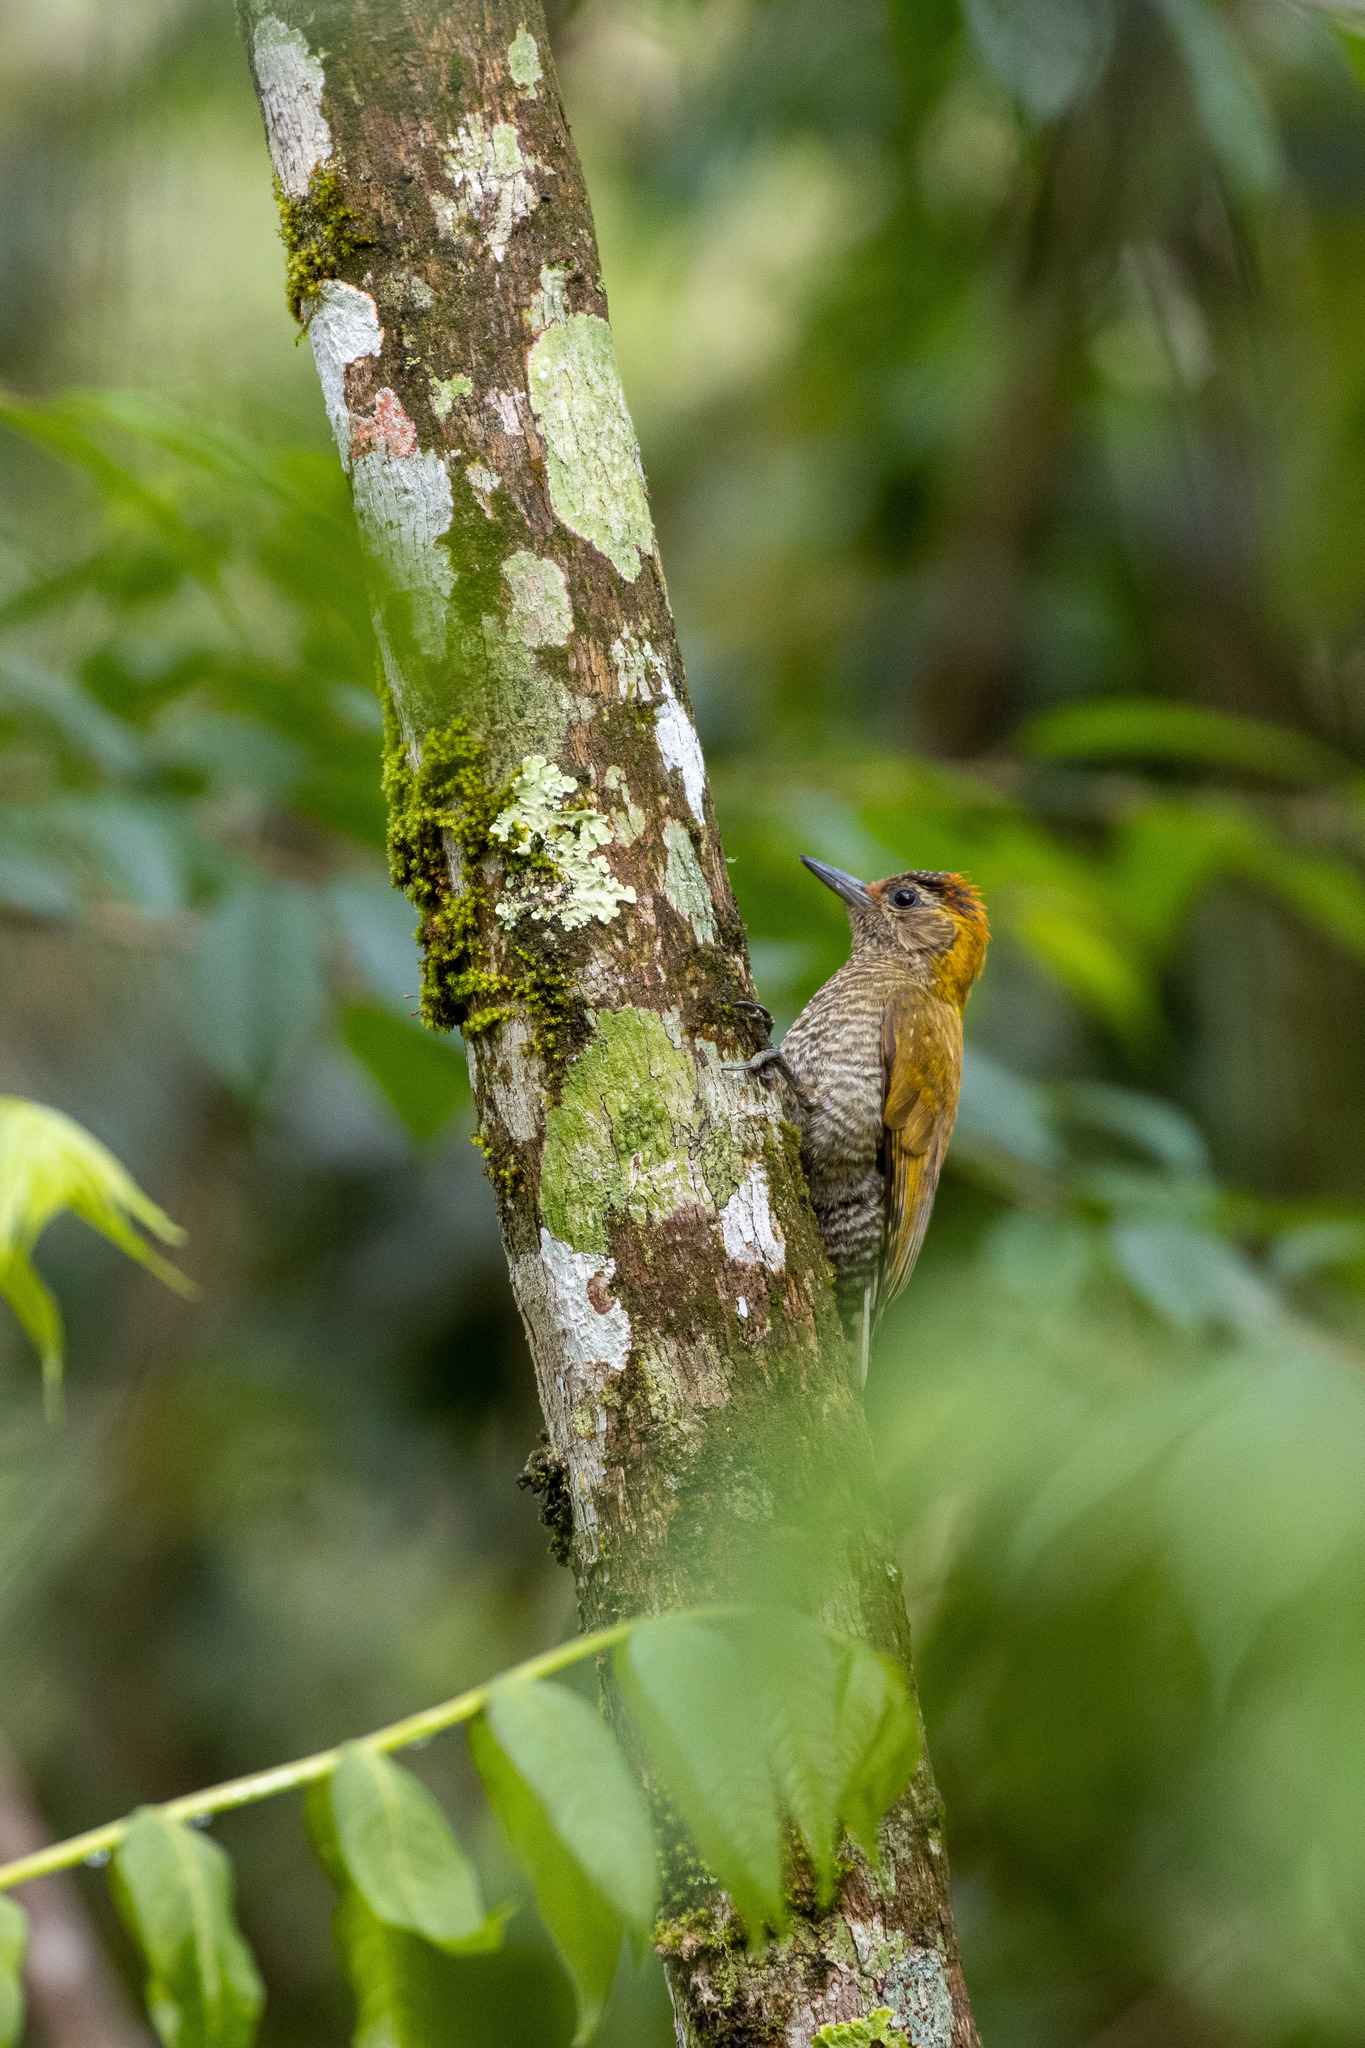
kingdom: Animalia
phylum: Chordata
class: Aves
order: Piciformes
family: Picidae
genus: Veniliornis
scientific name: Veniliornis maculifrons
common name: Yellow-eared woodpecker
